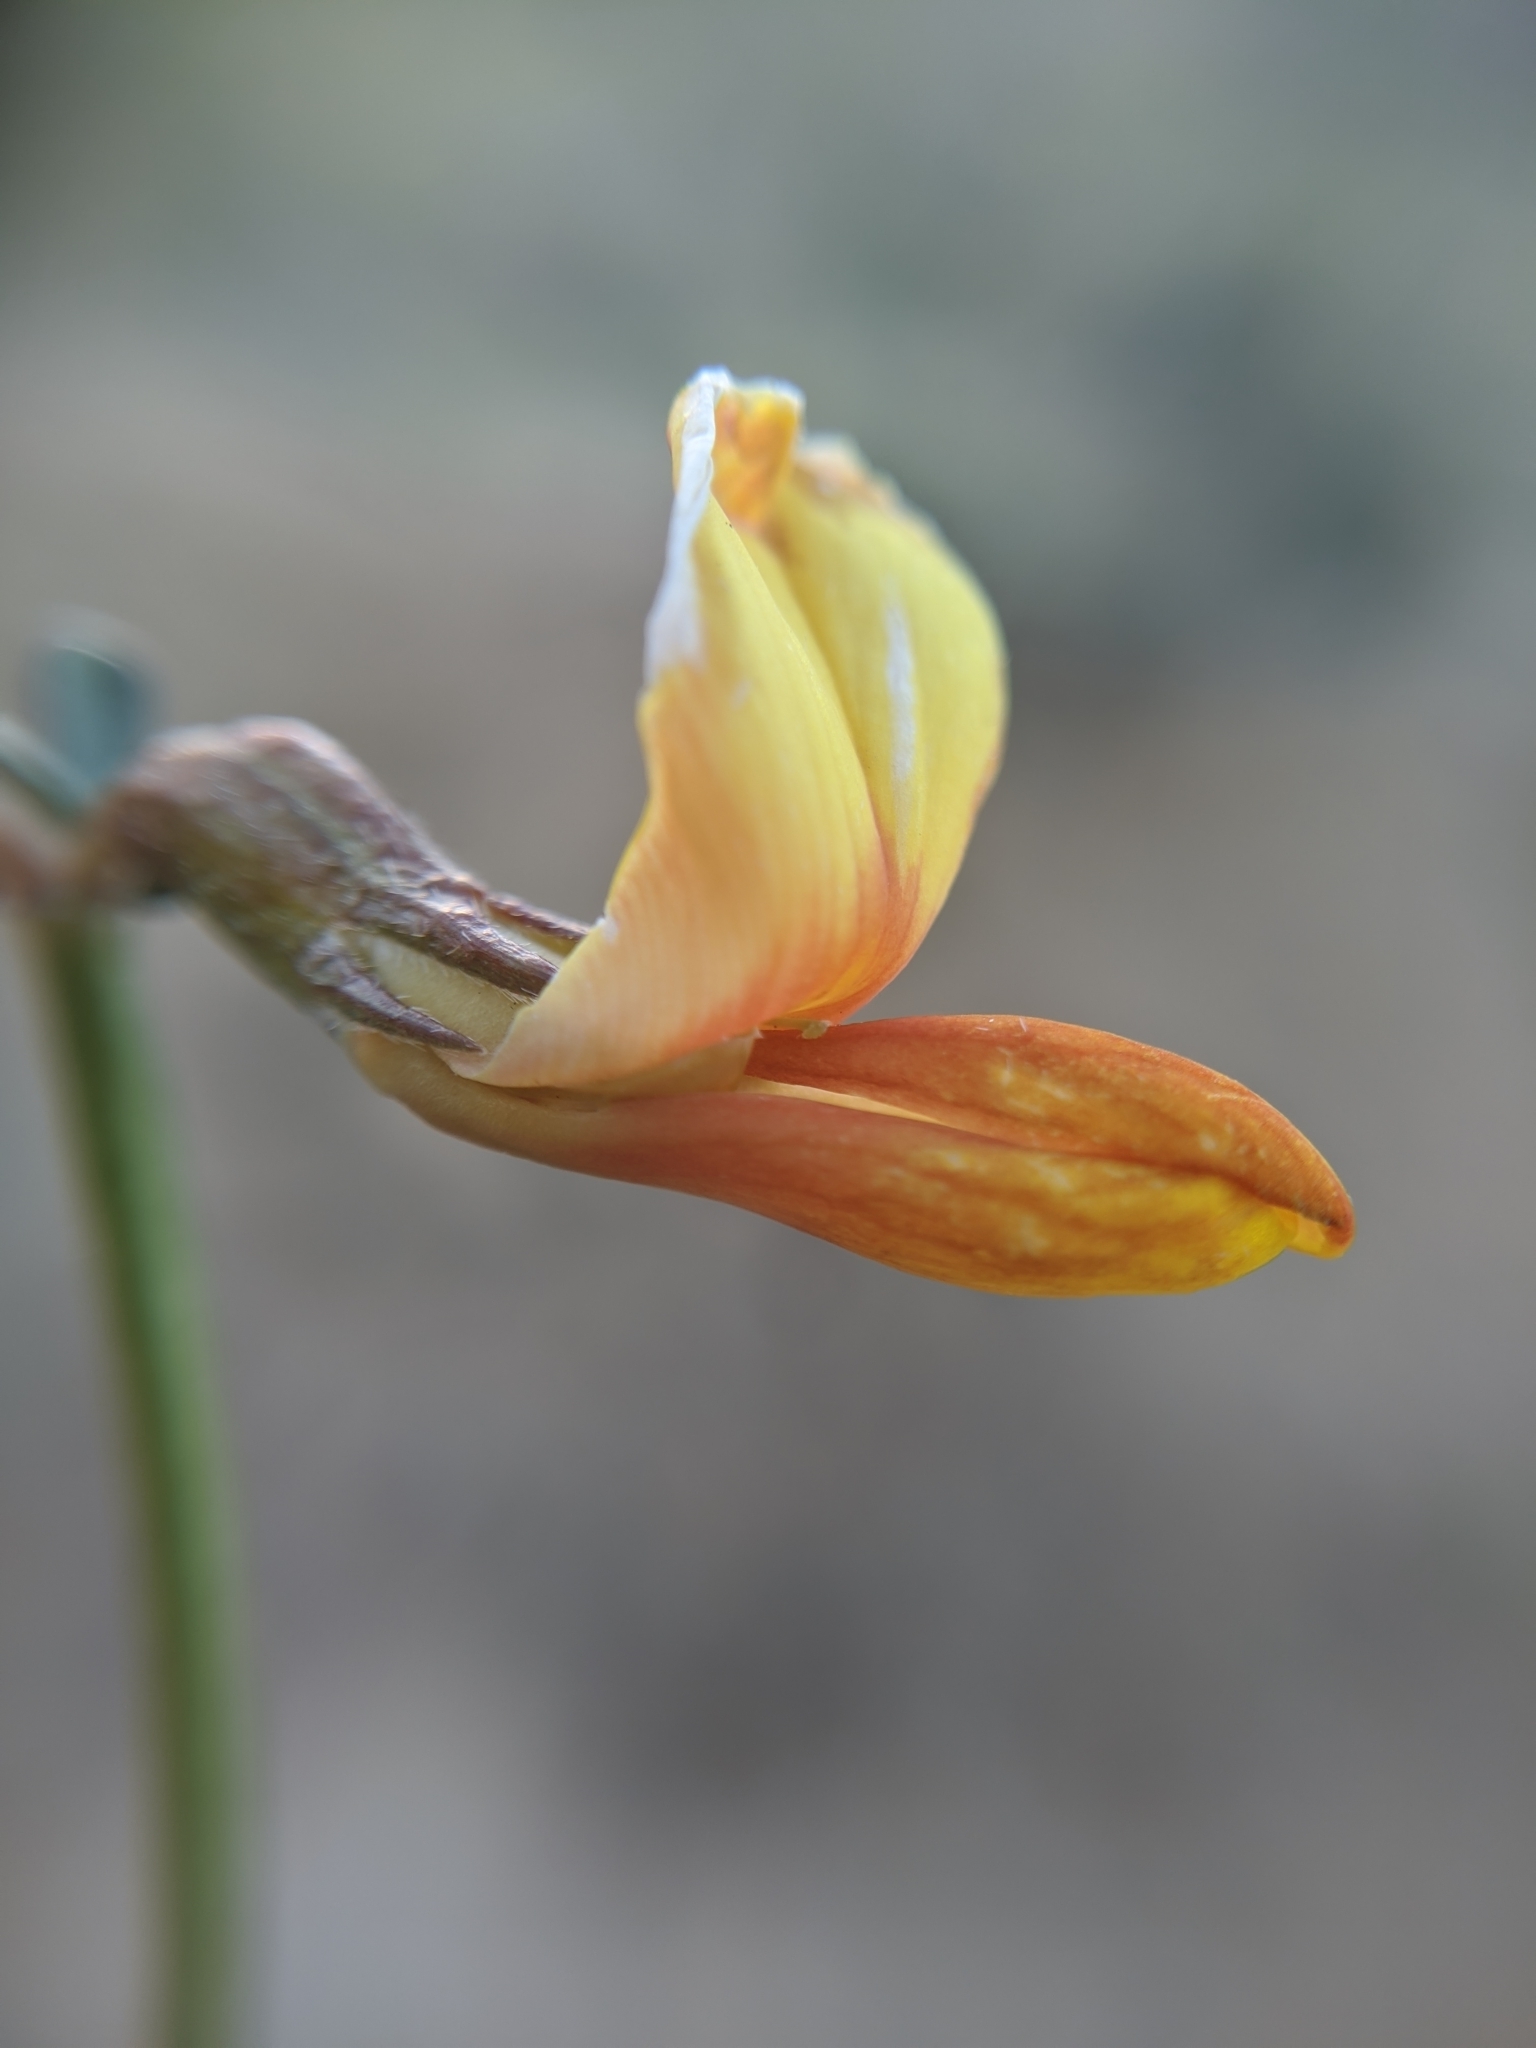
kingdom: Plantae
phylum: Tracheophyta
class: Magnoliopsida
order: Fabales
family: Fabaceae
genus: Acmispon
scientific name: Acmispon rigidus
